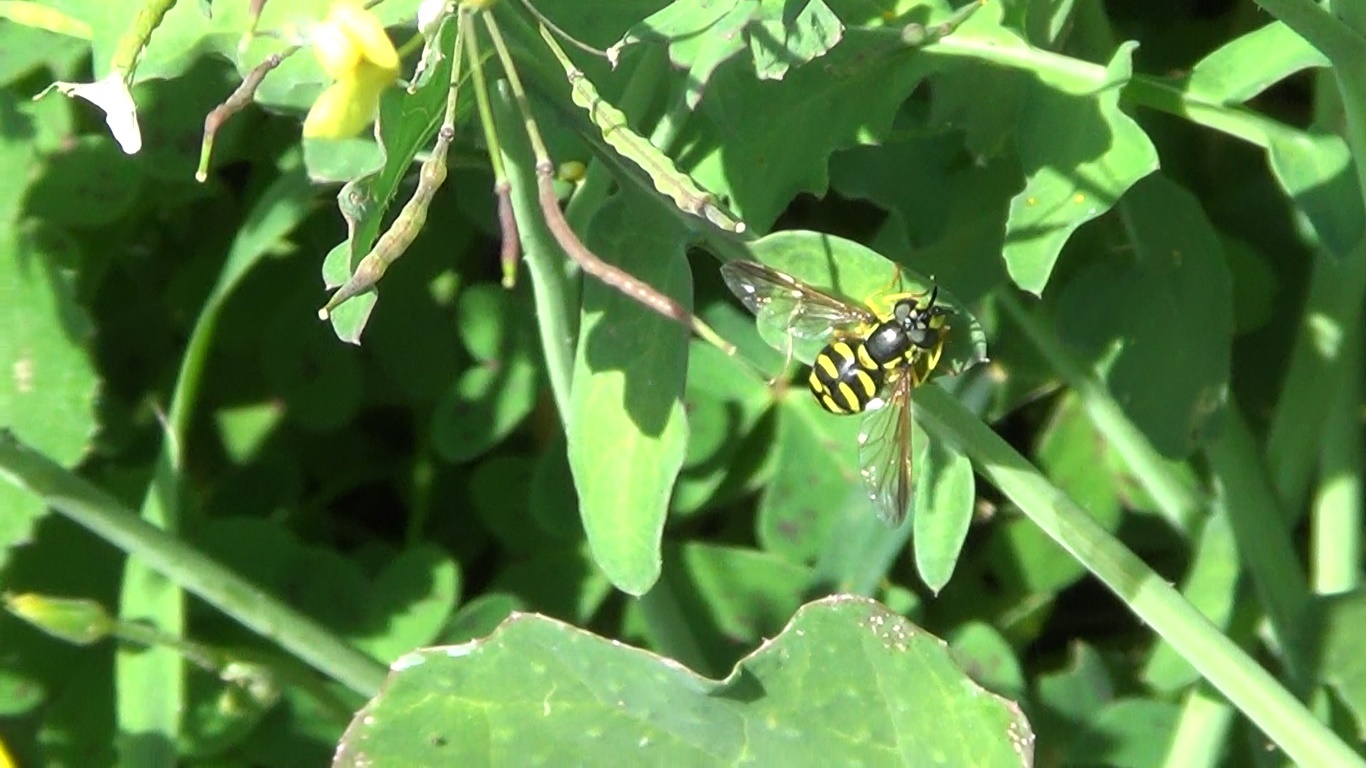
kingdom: Animalia
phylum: Arthropoda
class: Insecta
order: Diptera
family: Syrphidae
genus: Chrysotoxum
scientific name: Chrysotoxum intermedium
